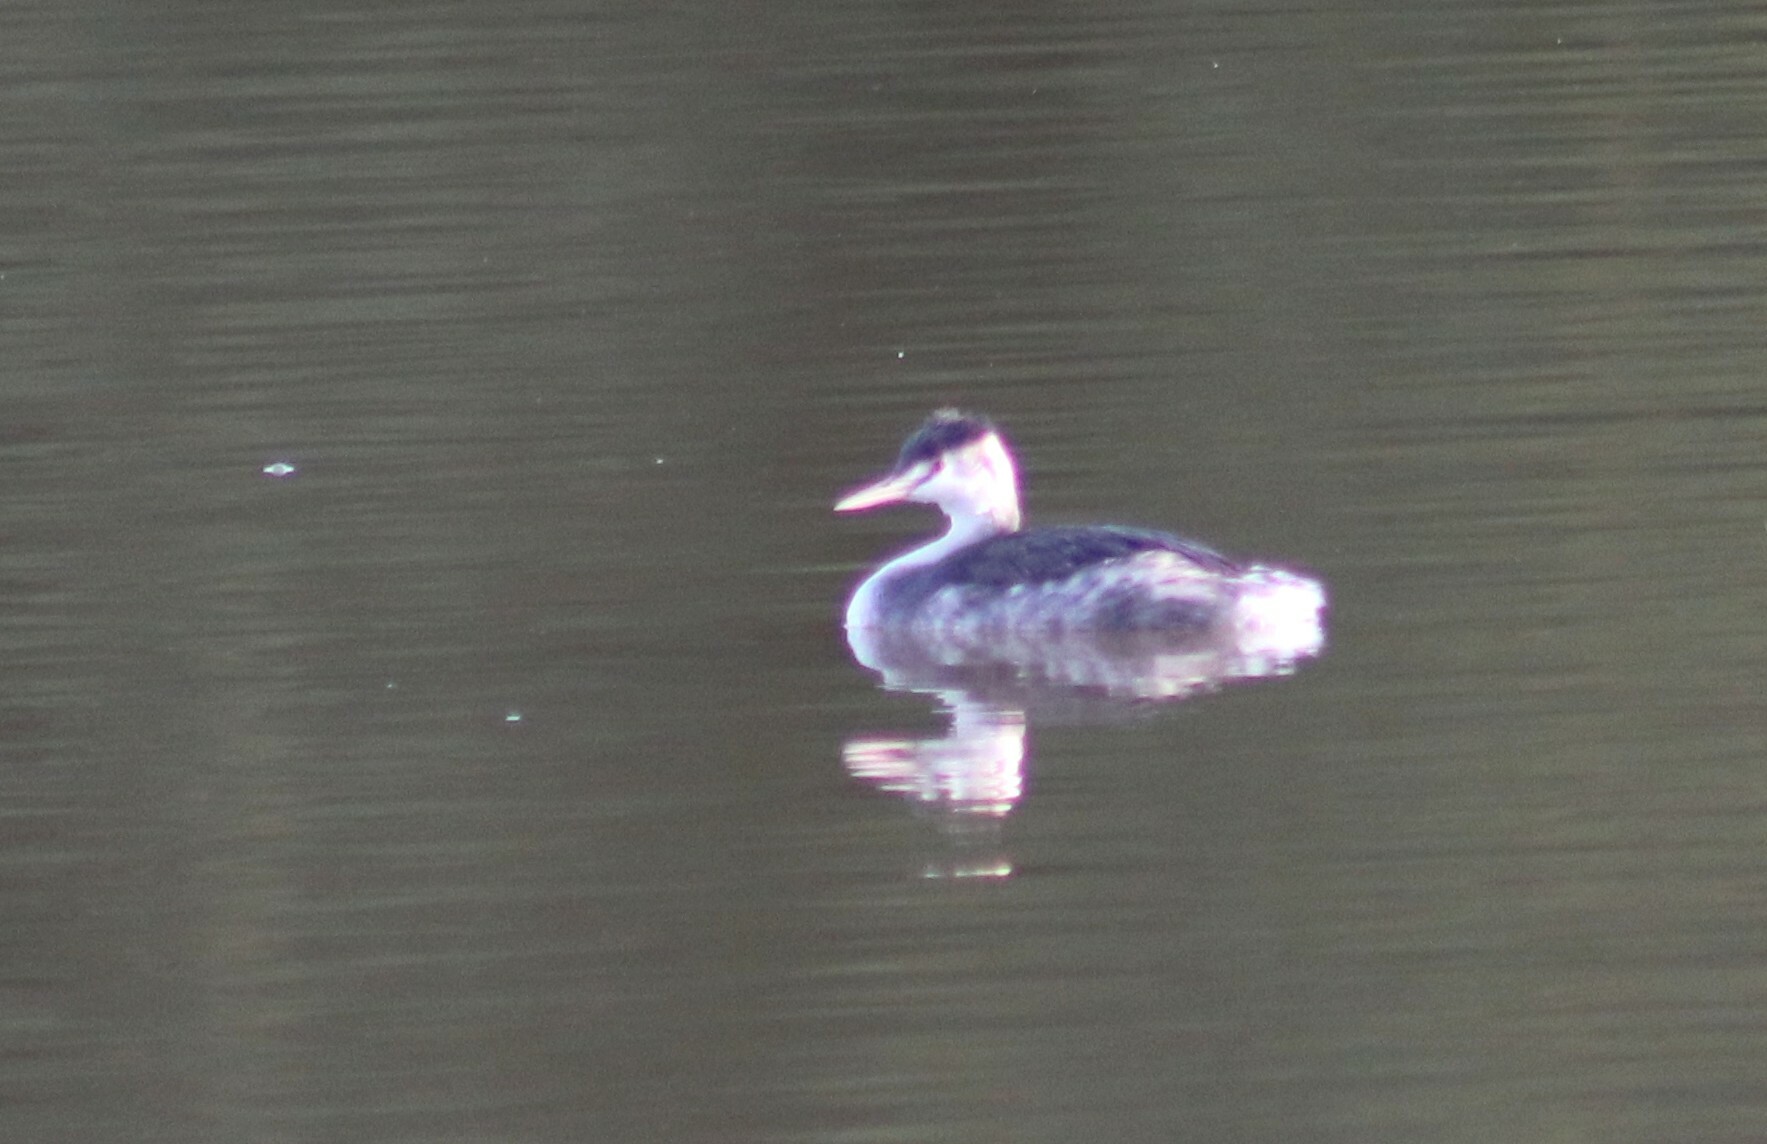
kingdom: Animalia
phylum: Chordata
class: Aves
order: Podicipediformes
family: Podicipedidae
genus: Podiceps
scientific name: Podiceps cristatus
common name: Great crested grebe
